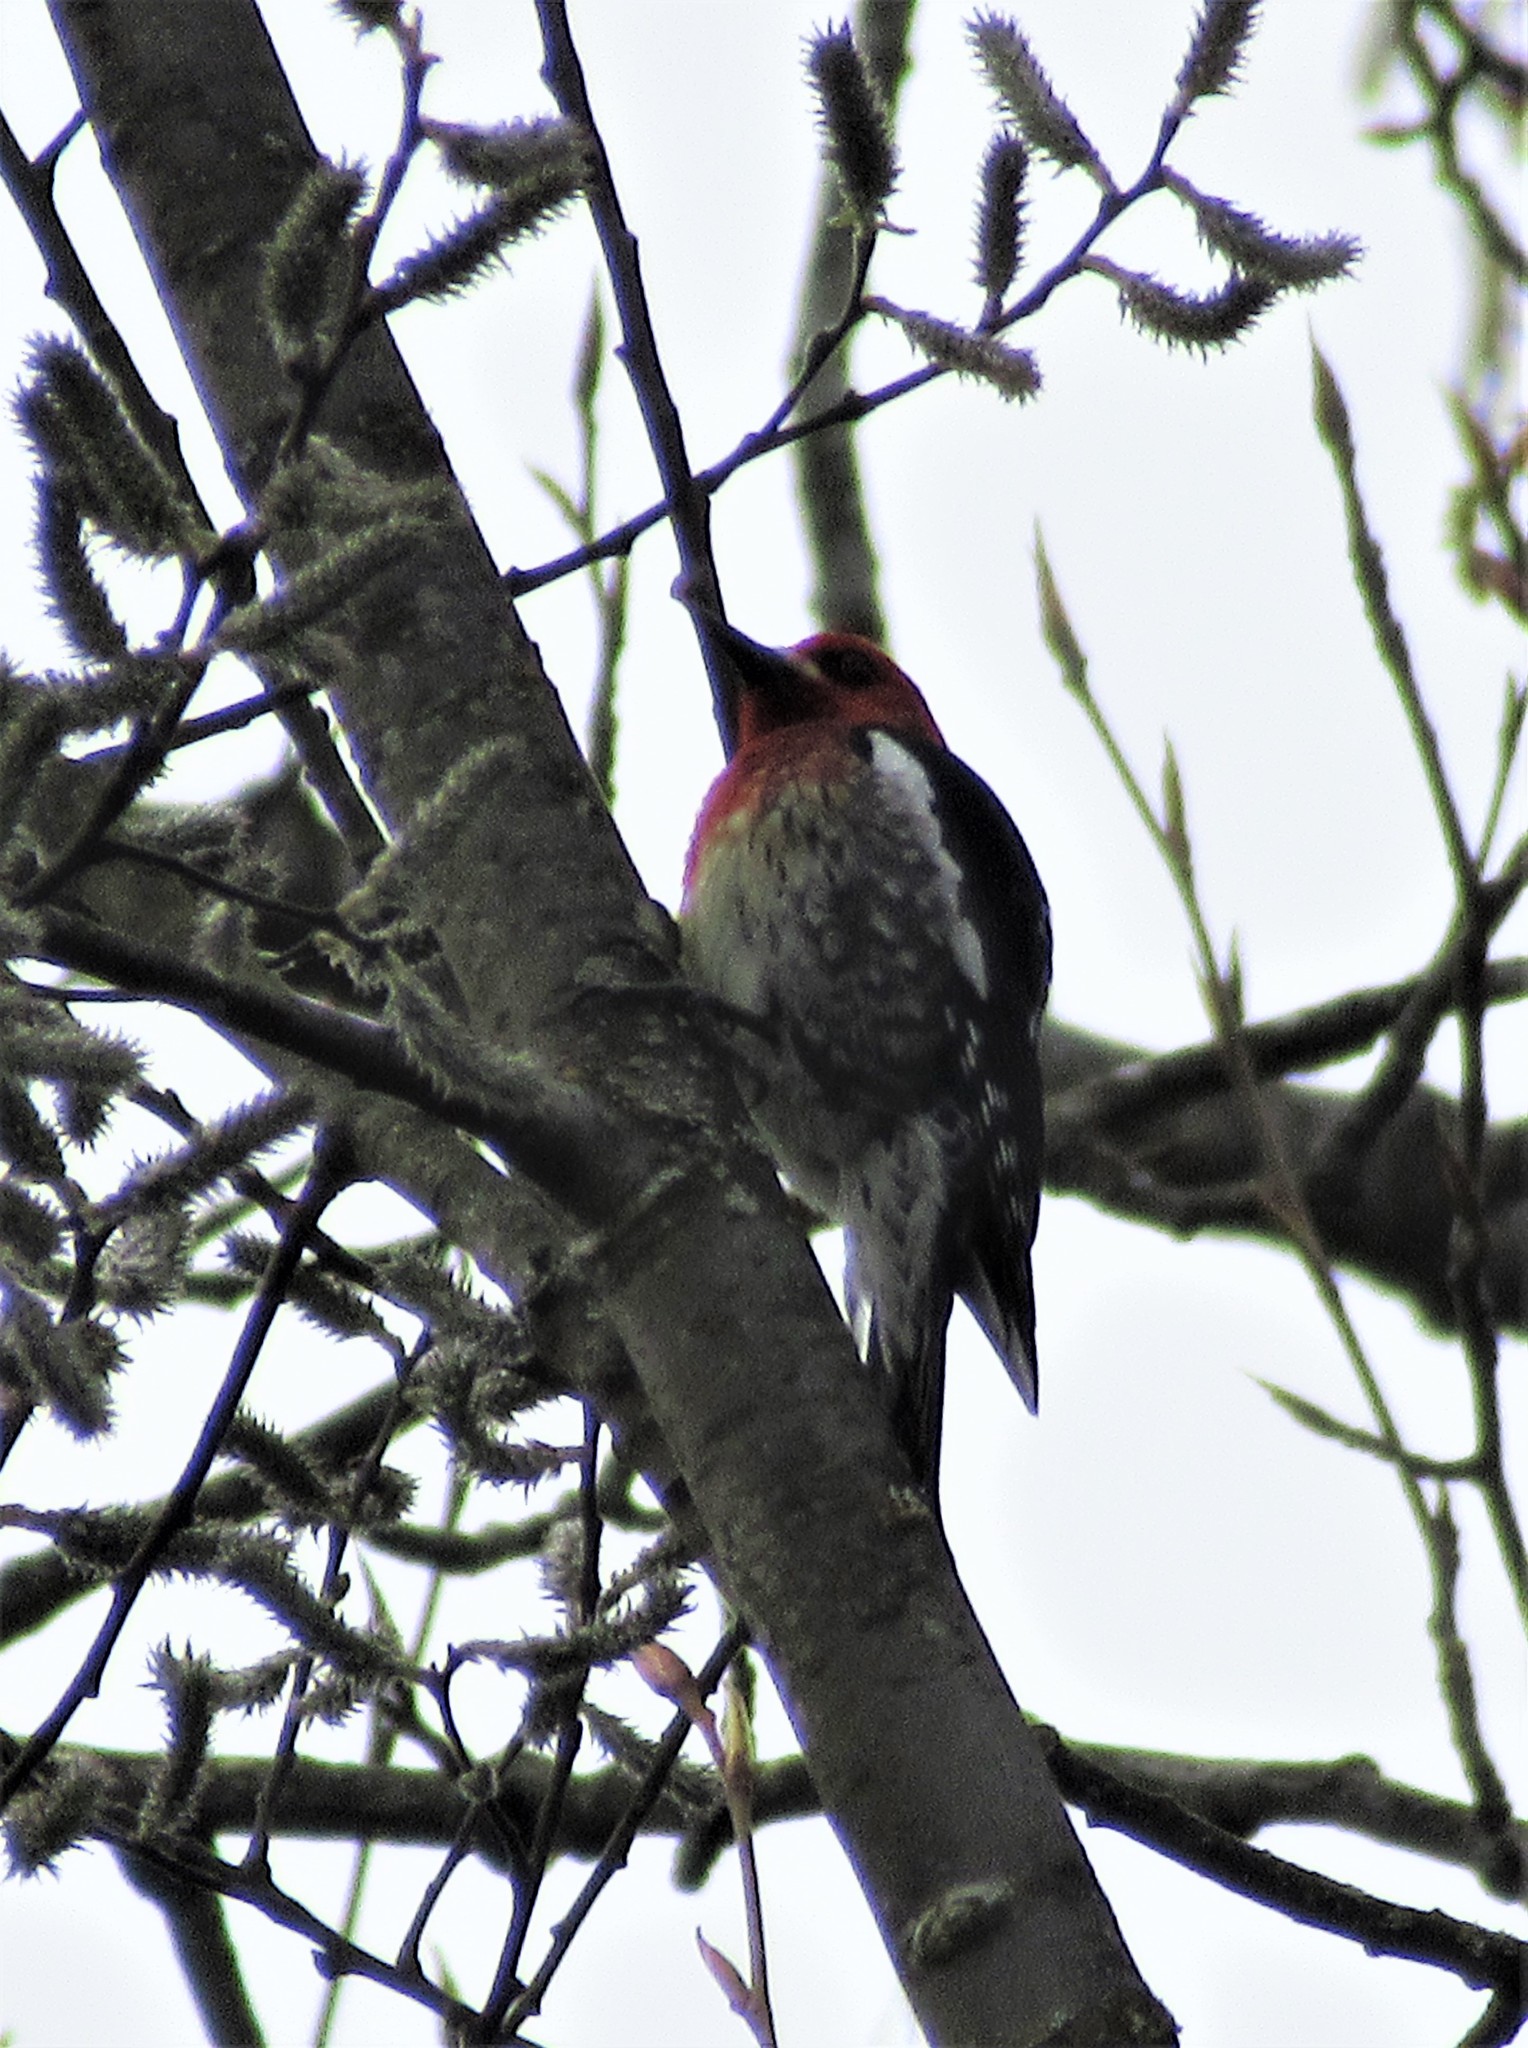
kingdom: Animalia
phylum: Chordata
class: Aves
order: Piciformes
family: Picidae
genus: Sphyrapicus
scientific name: Sphyrapicus ruber
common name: Red-breasted sapsucker
